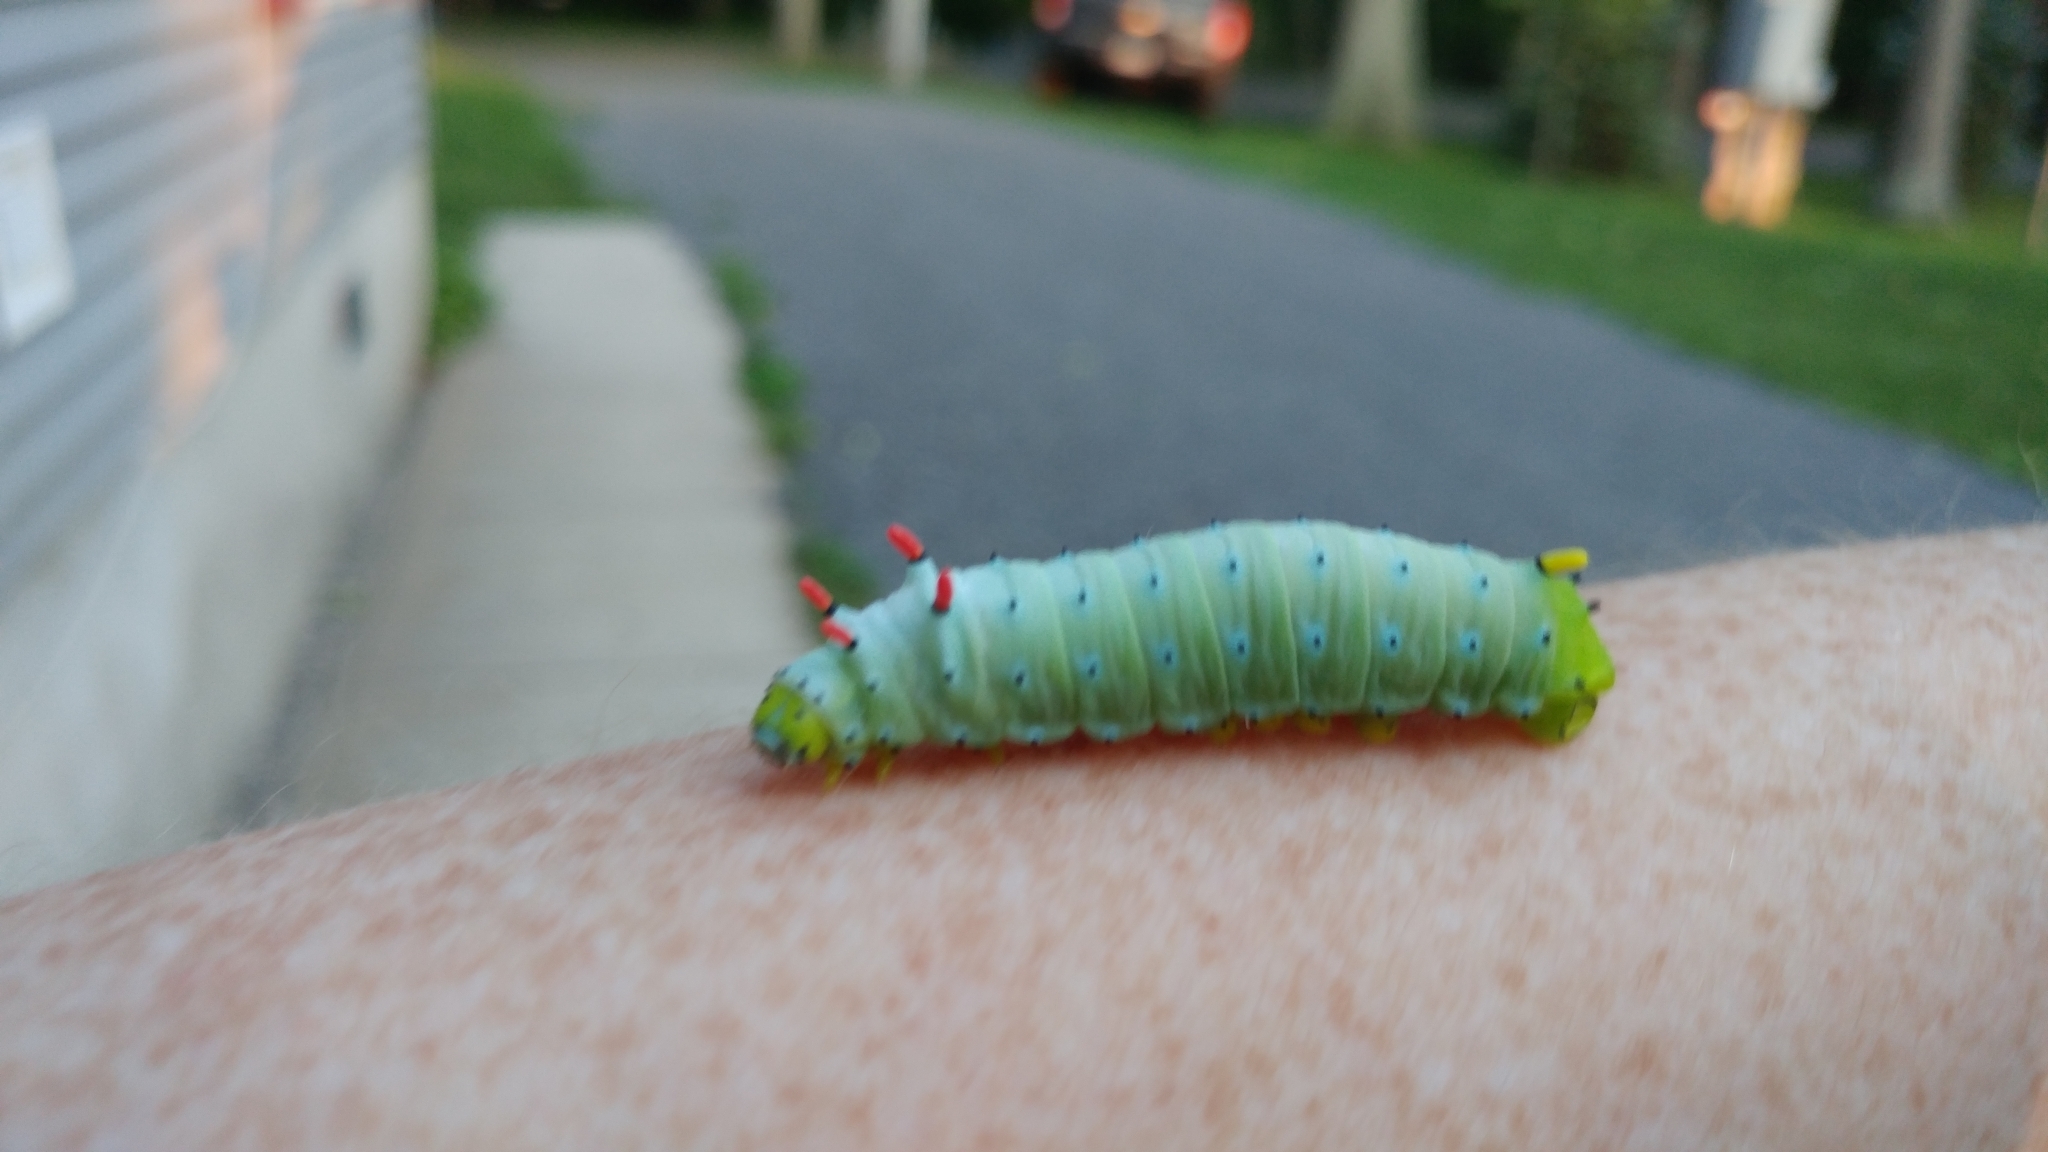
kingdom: Animalia
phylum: Arthropoda
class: Insecta
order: Lepidoptera
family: Saturniidae
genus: Callosamia
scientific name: Callosamia promethea
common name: Promethea silkmoth
